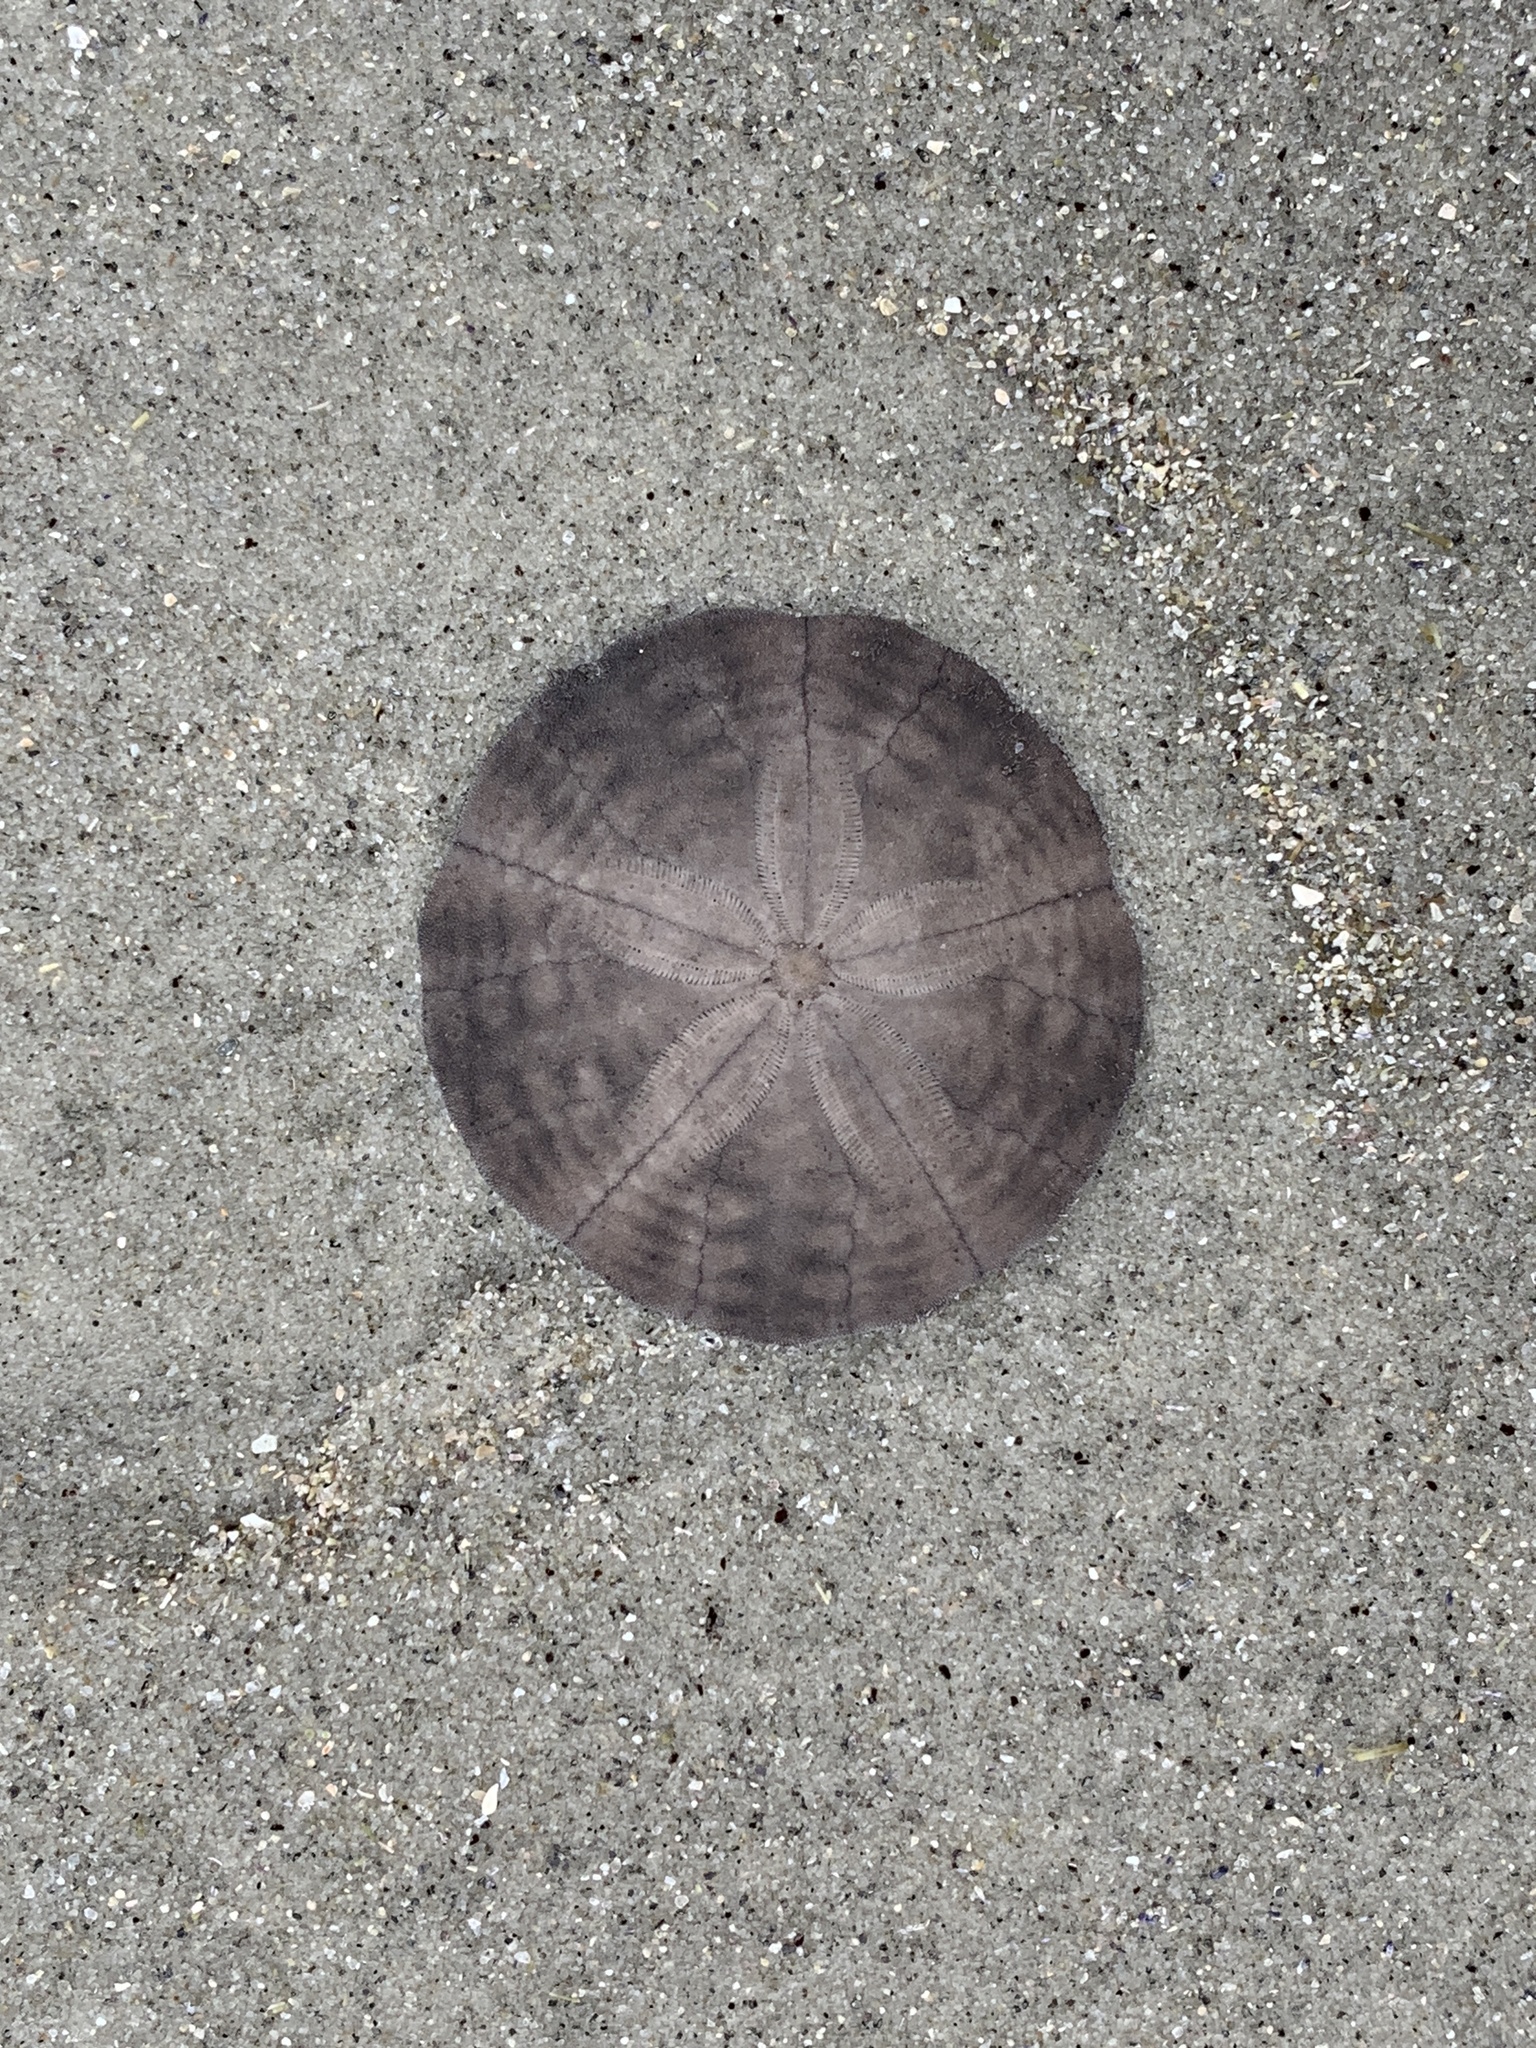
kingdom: Animalia
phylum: Echinodermata
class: Echinoidea
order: Echinolampadacea
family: Echinarachniidae
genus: Echinarachnius
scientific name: Echinarachnius parma
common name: Common sand dollar
